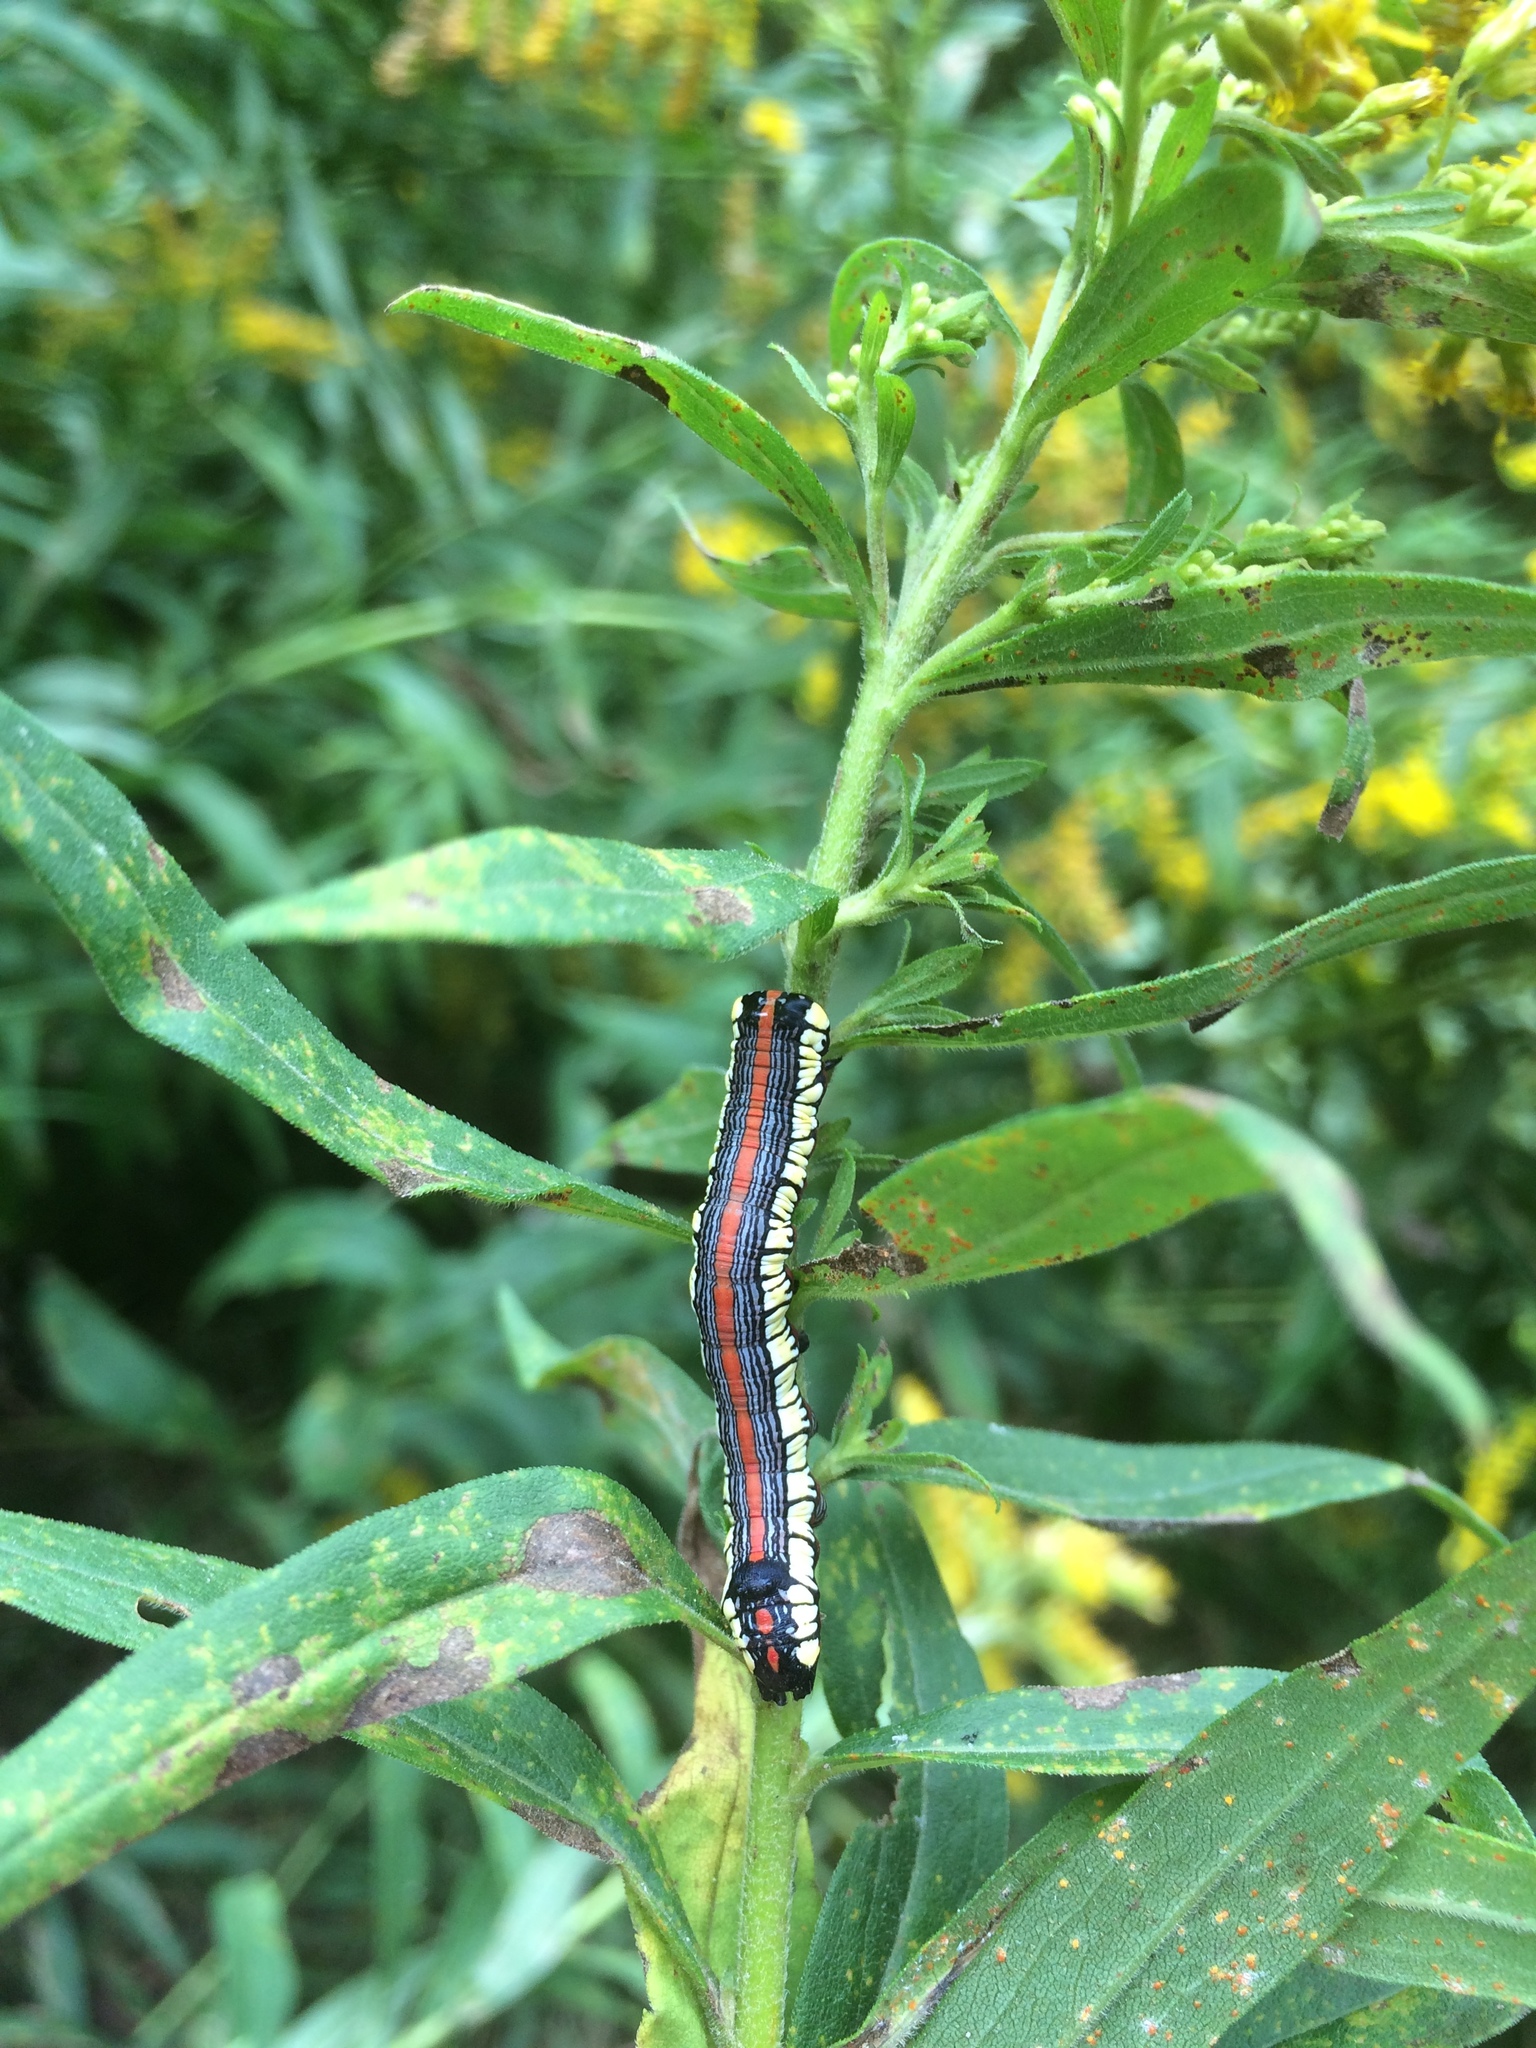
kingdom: Animalia
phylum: Arthropoda
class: Insecta
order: Lepidoptera
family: Noctuidae
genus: Cucullia
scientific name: Cucullia convexipennis
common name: Brown-hooded owlet
